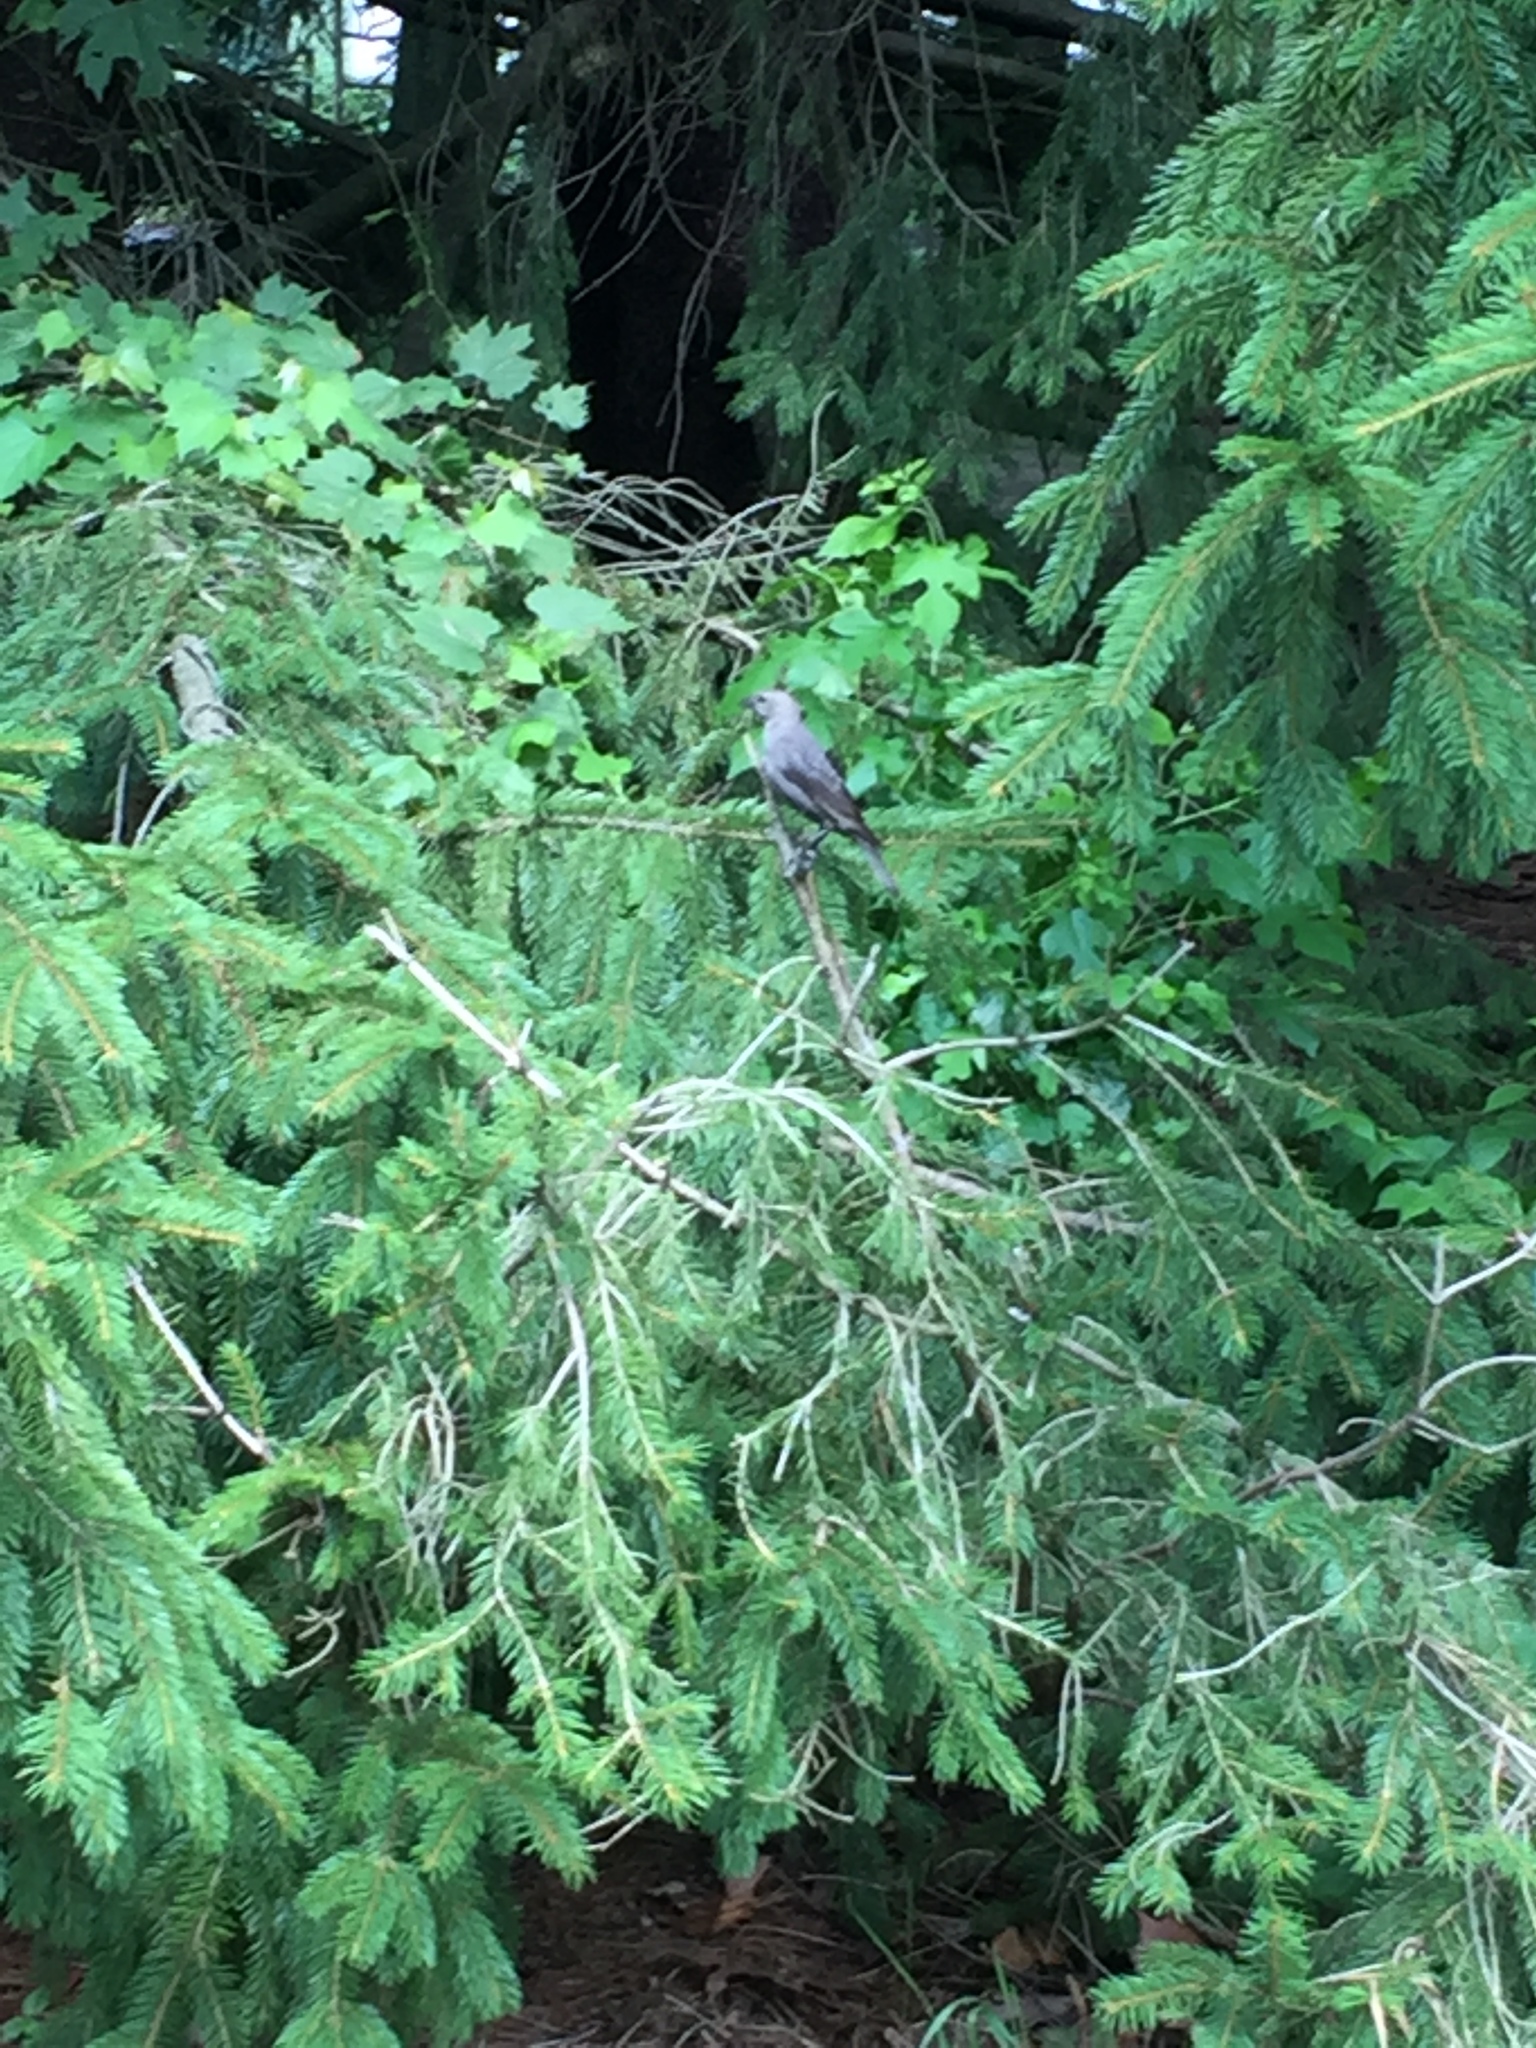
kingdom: Animalia
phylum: Chordata
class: Aves
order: Passeriformes
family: Icteridae
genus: Molothrus
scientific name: Molothrus ater
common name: Brown-headed cowbird
